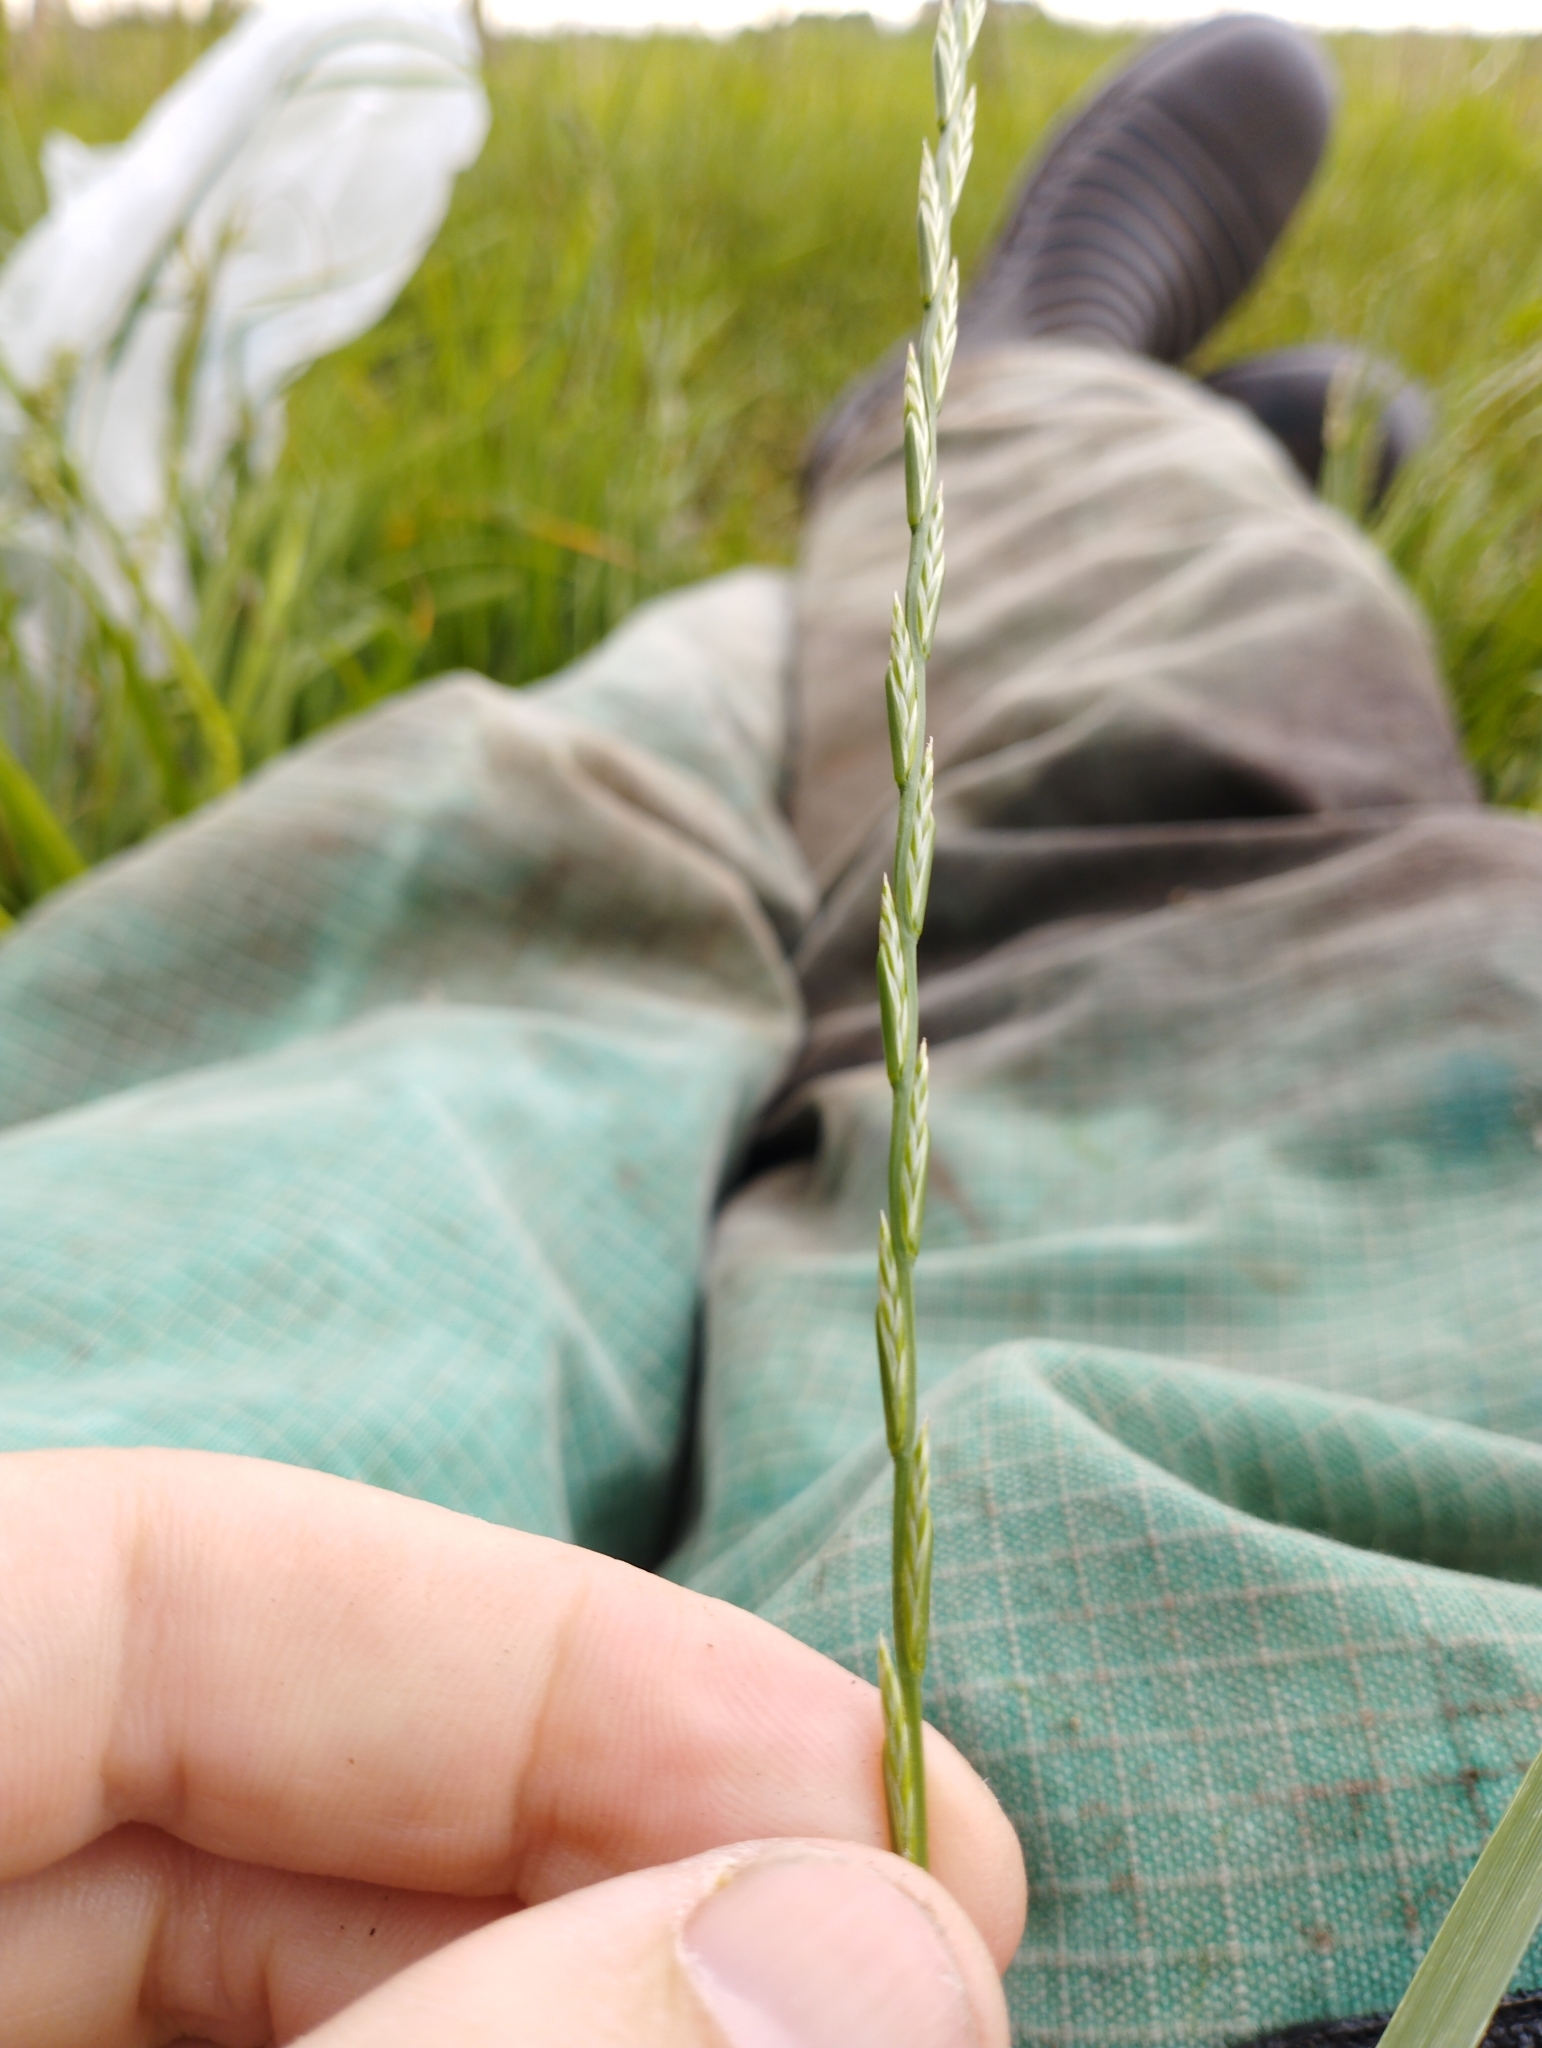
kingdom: Plantae
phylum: Tracheophyta
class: Liliopsida
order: Poales
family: Poaceae
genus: Lolium
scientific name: Lolium perenne
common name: Perennial ryegrass
